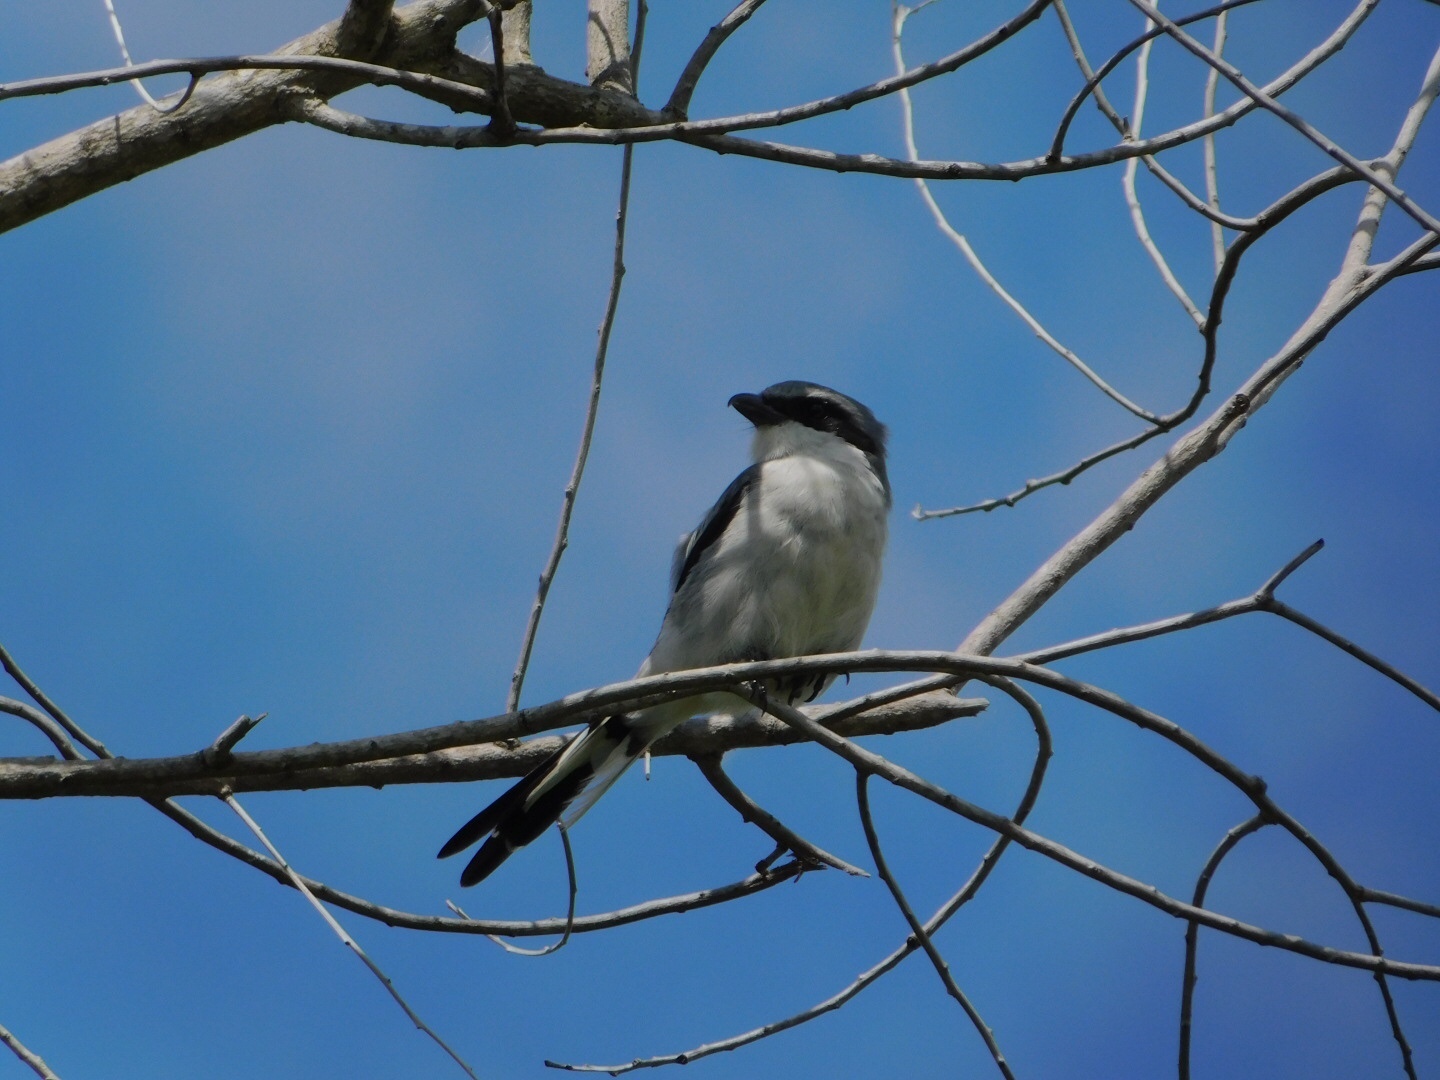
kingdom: Animalia
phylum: Chordata
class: Aves
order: Passeriformes
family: Laniidae
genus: Lanius
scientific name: Lanius ludovicianus
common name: Loggerhead shrike
